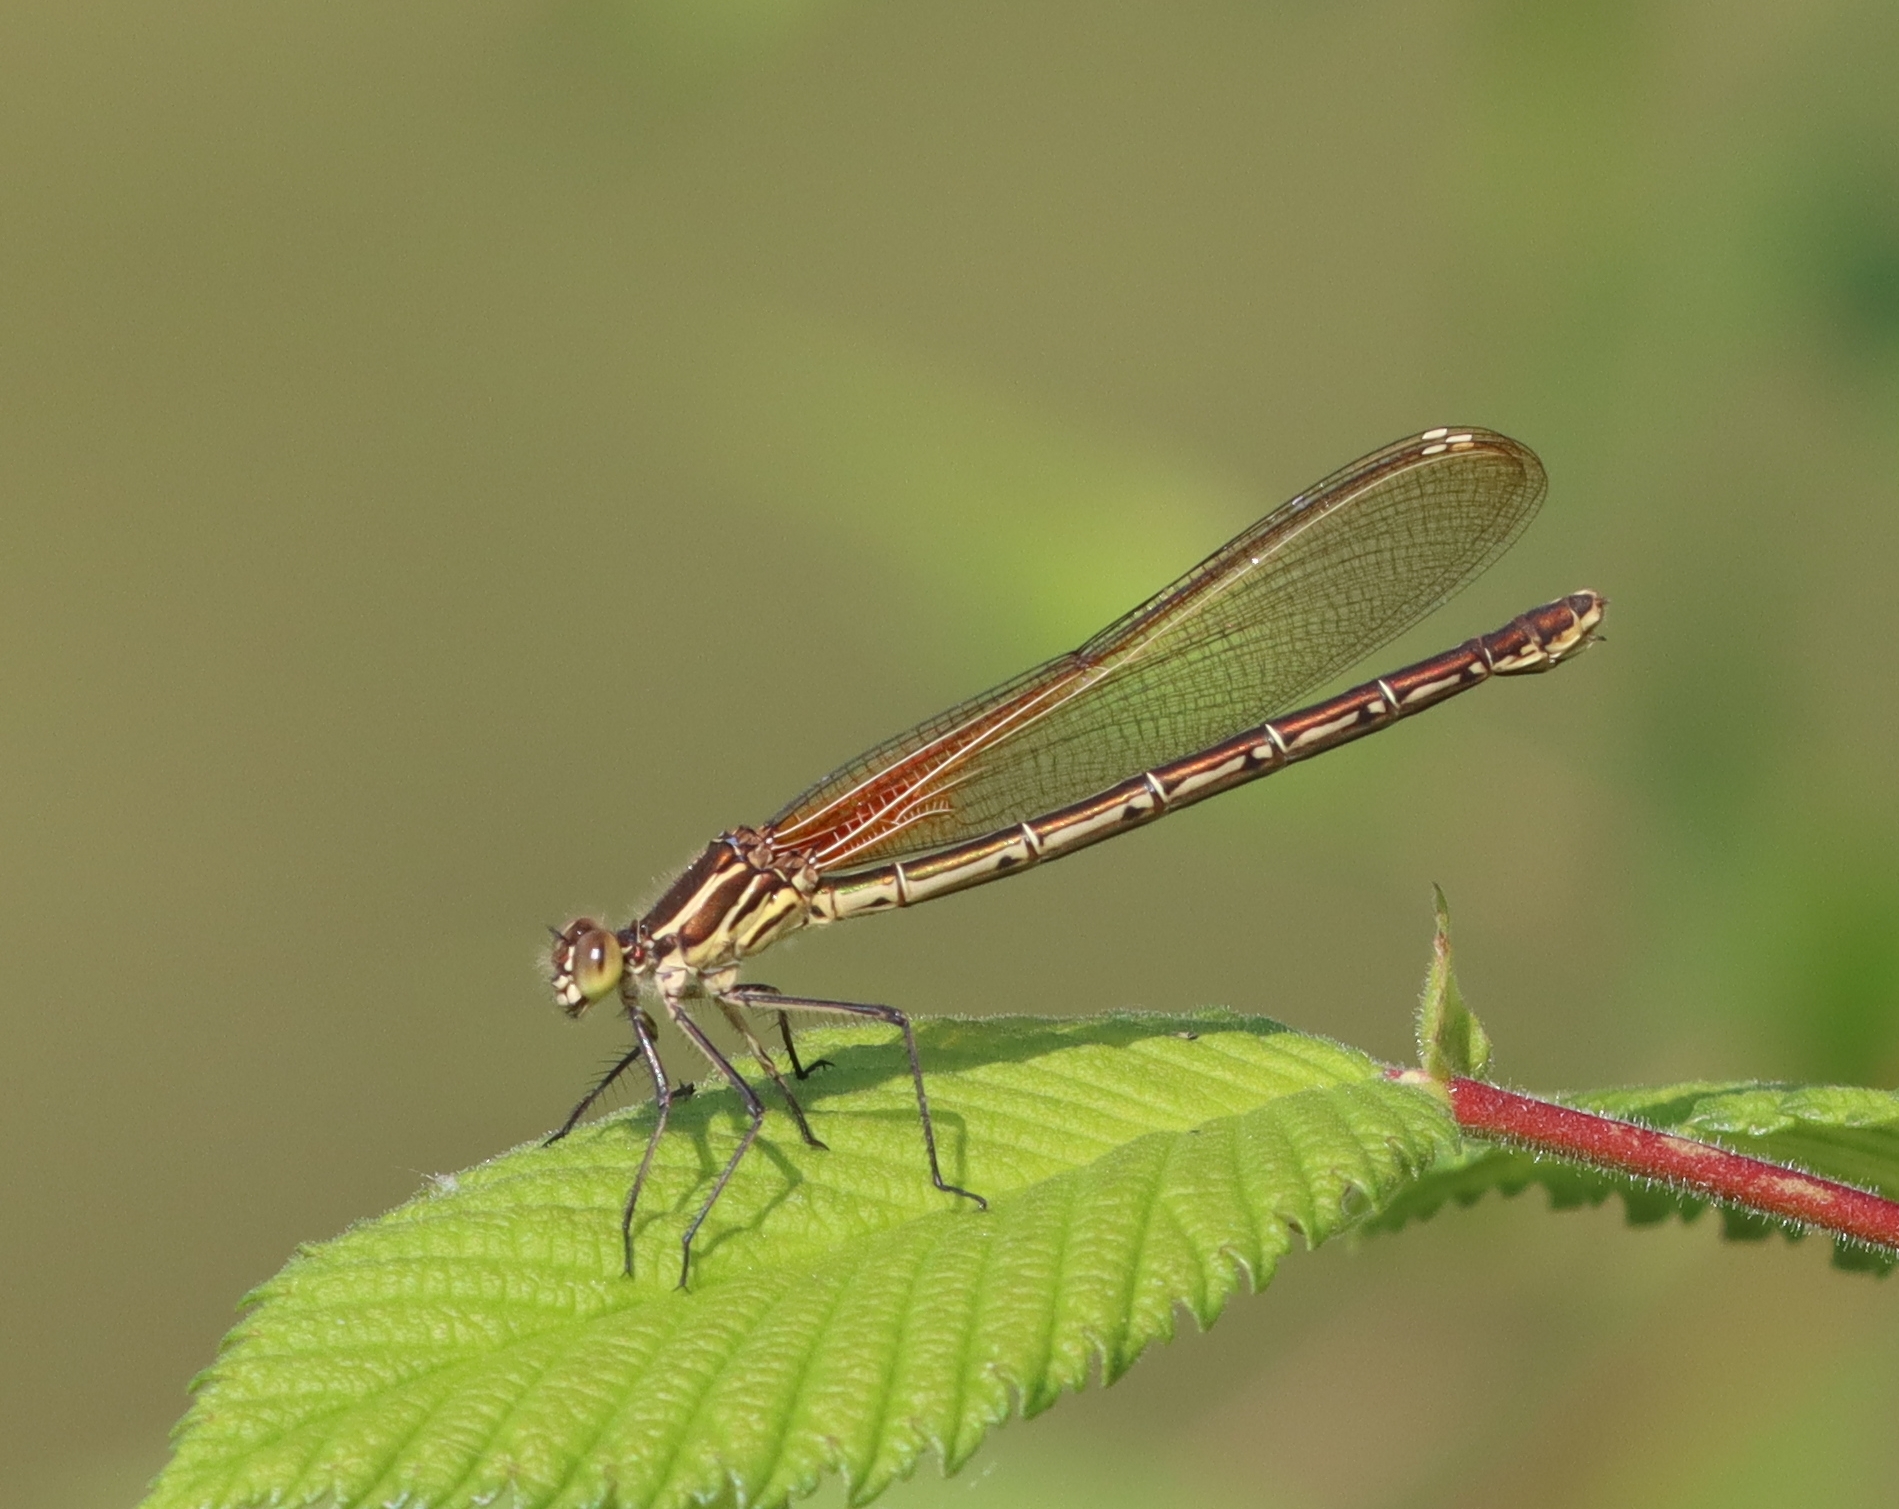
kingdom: Animalia
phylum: Arthropoda
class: Insecta
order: Odonata
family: Calopterygidae
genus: Hetaerina
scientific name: Hetaerina americana
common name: American rubyspot
